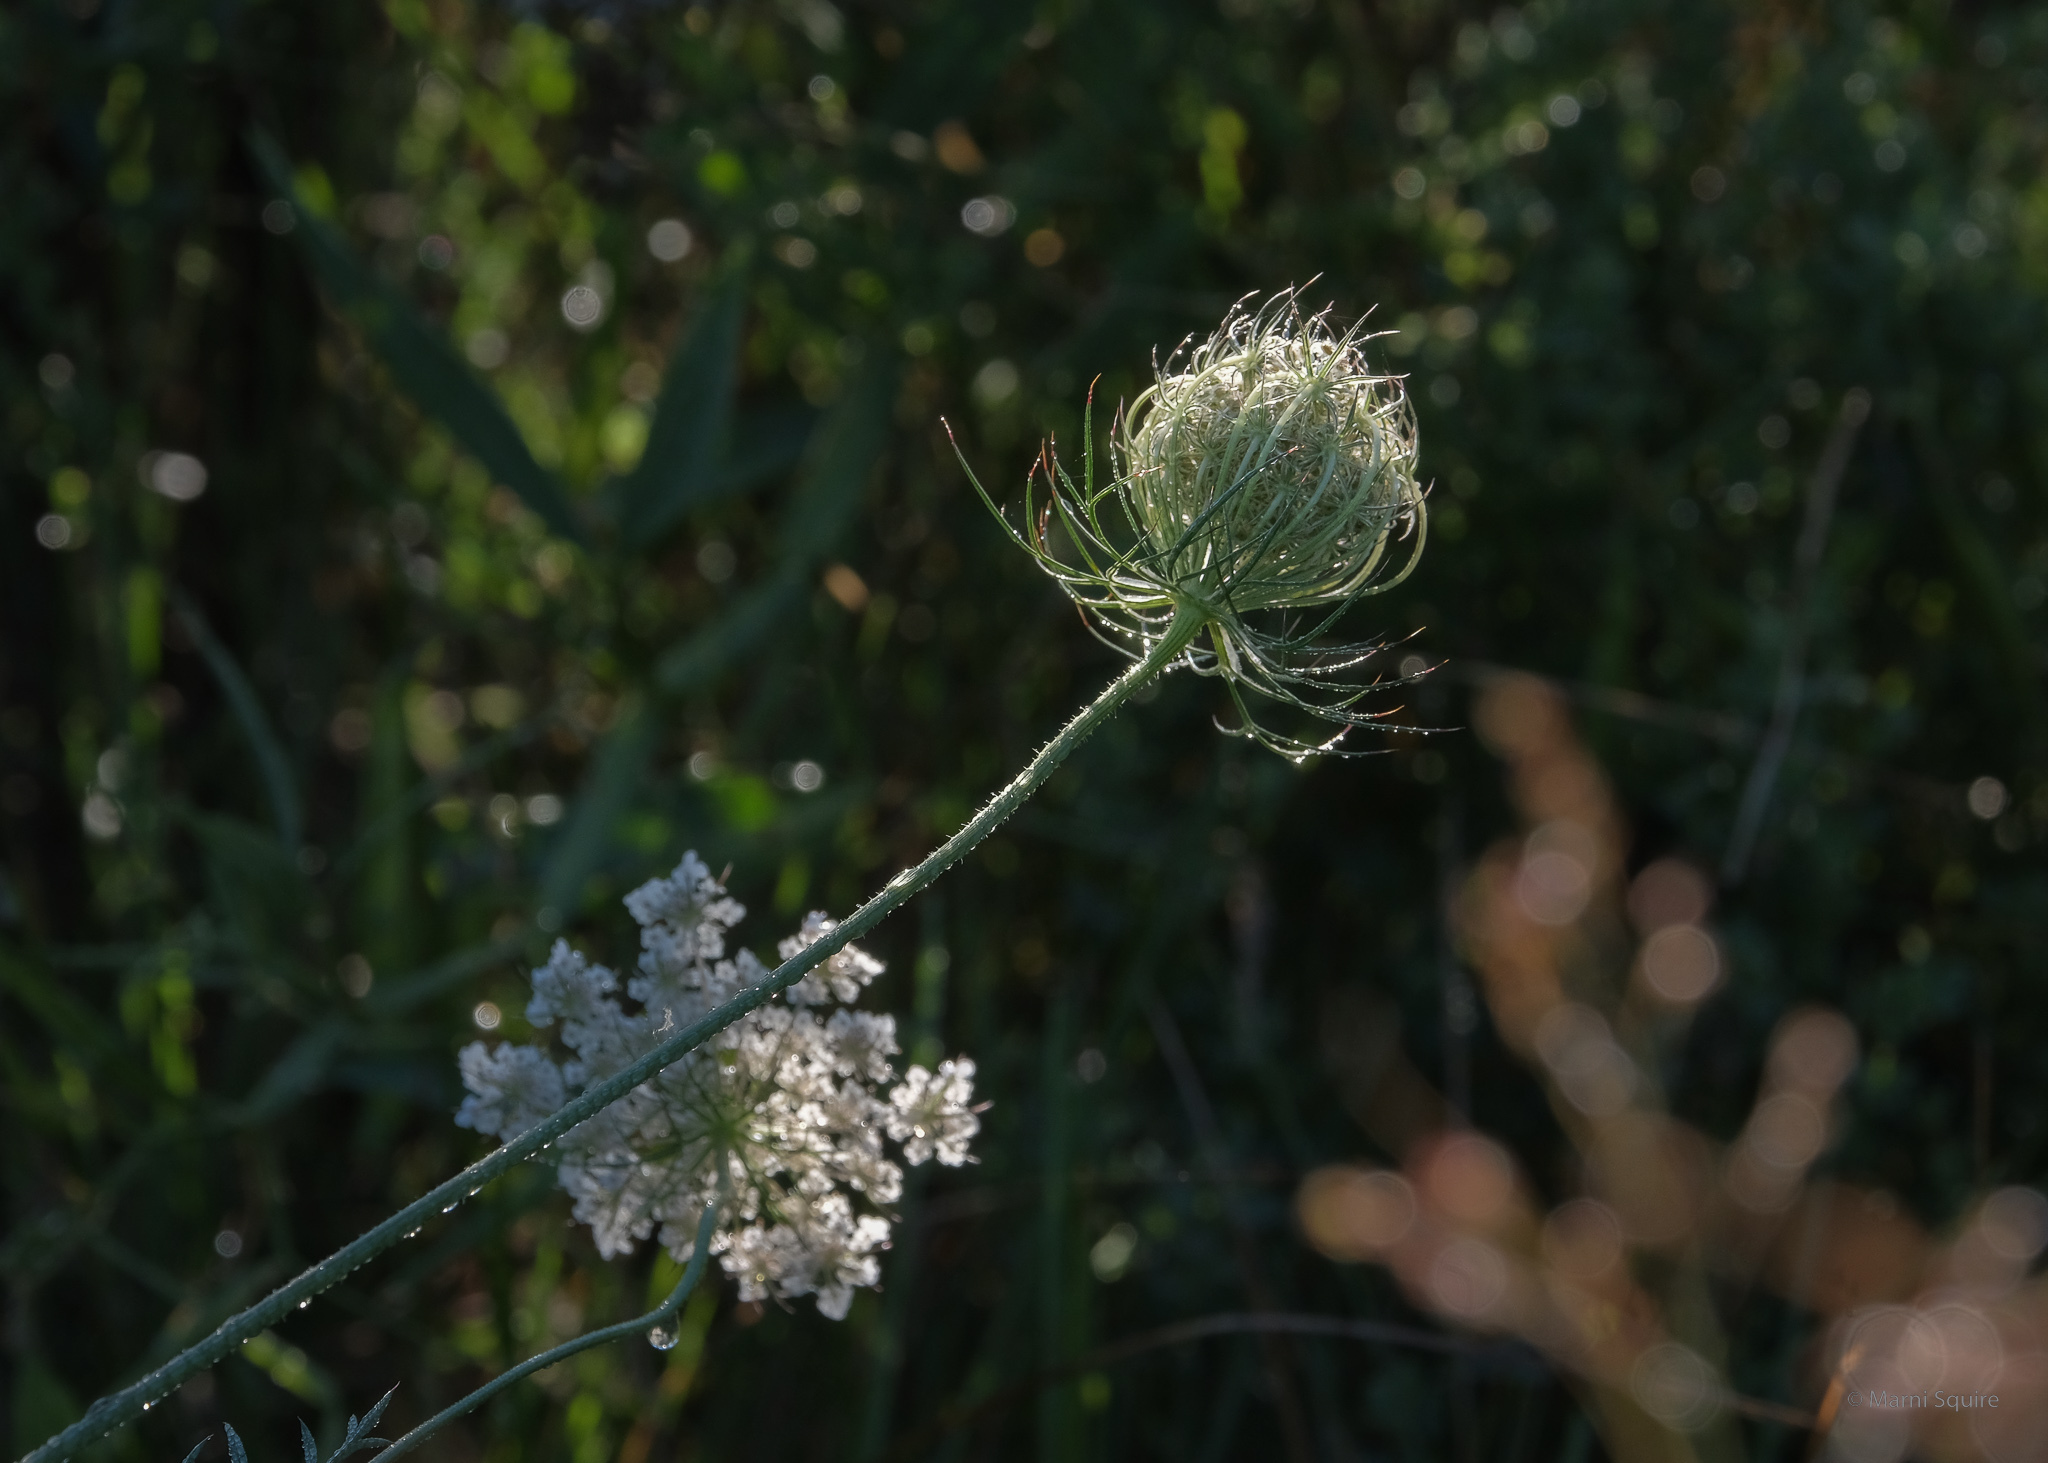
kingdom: Plantae
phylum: Tracheophyta
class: Magnoliopsida
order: Apiales
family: Apiaceae
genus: Daucus
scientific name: Daucus carota
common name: Wild carrot
